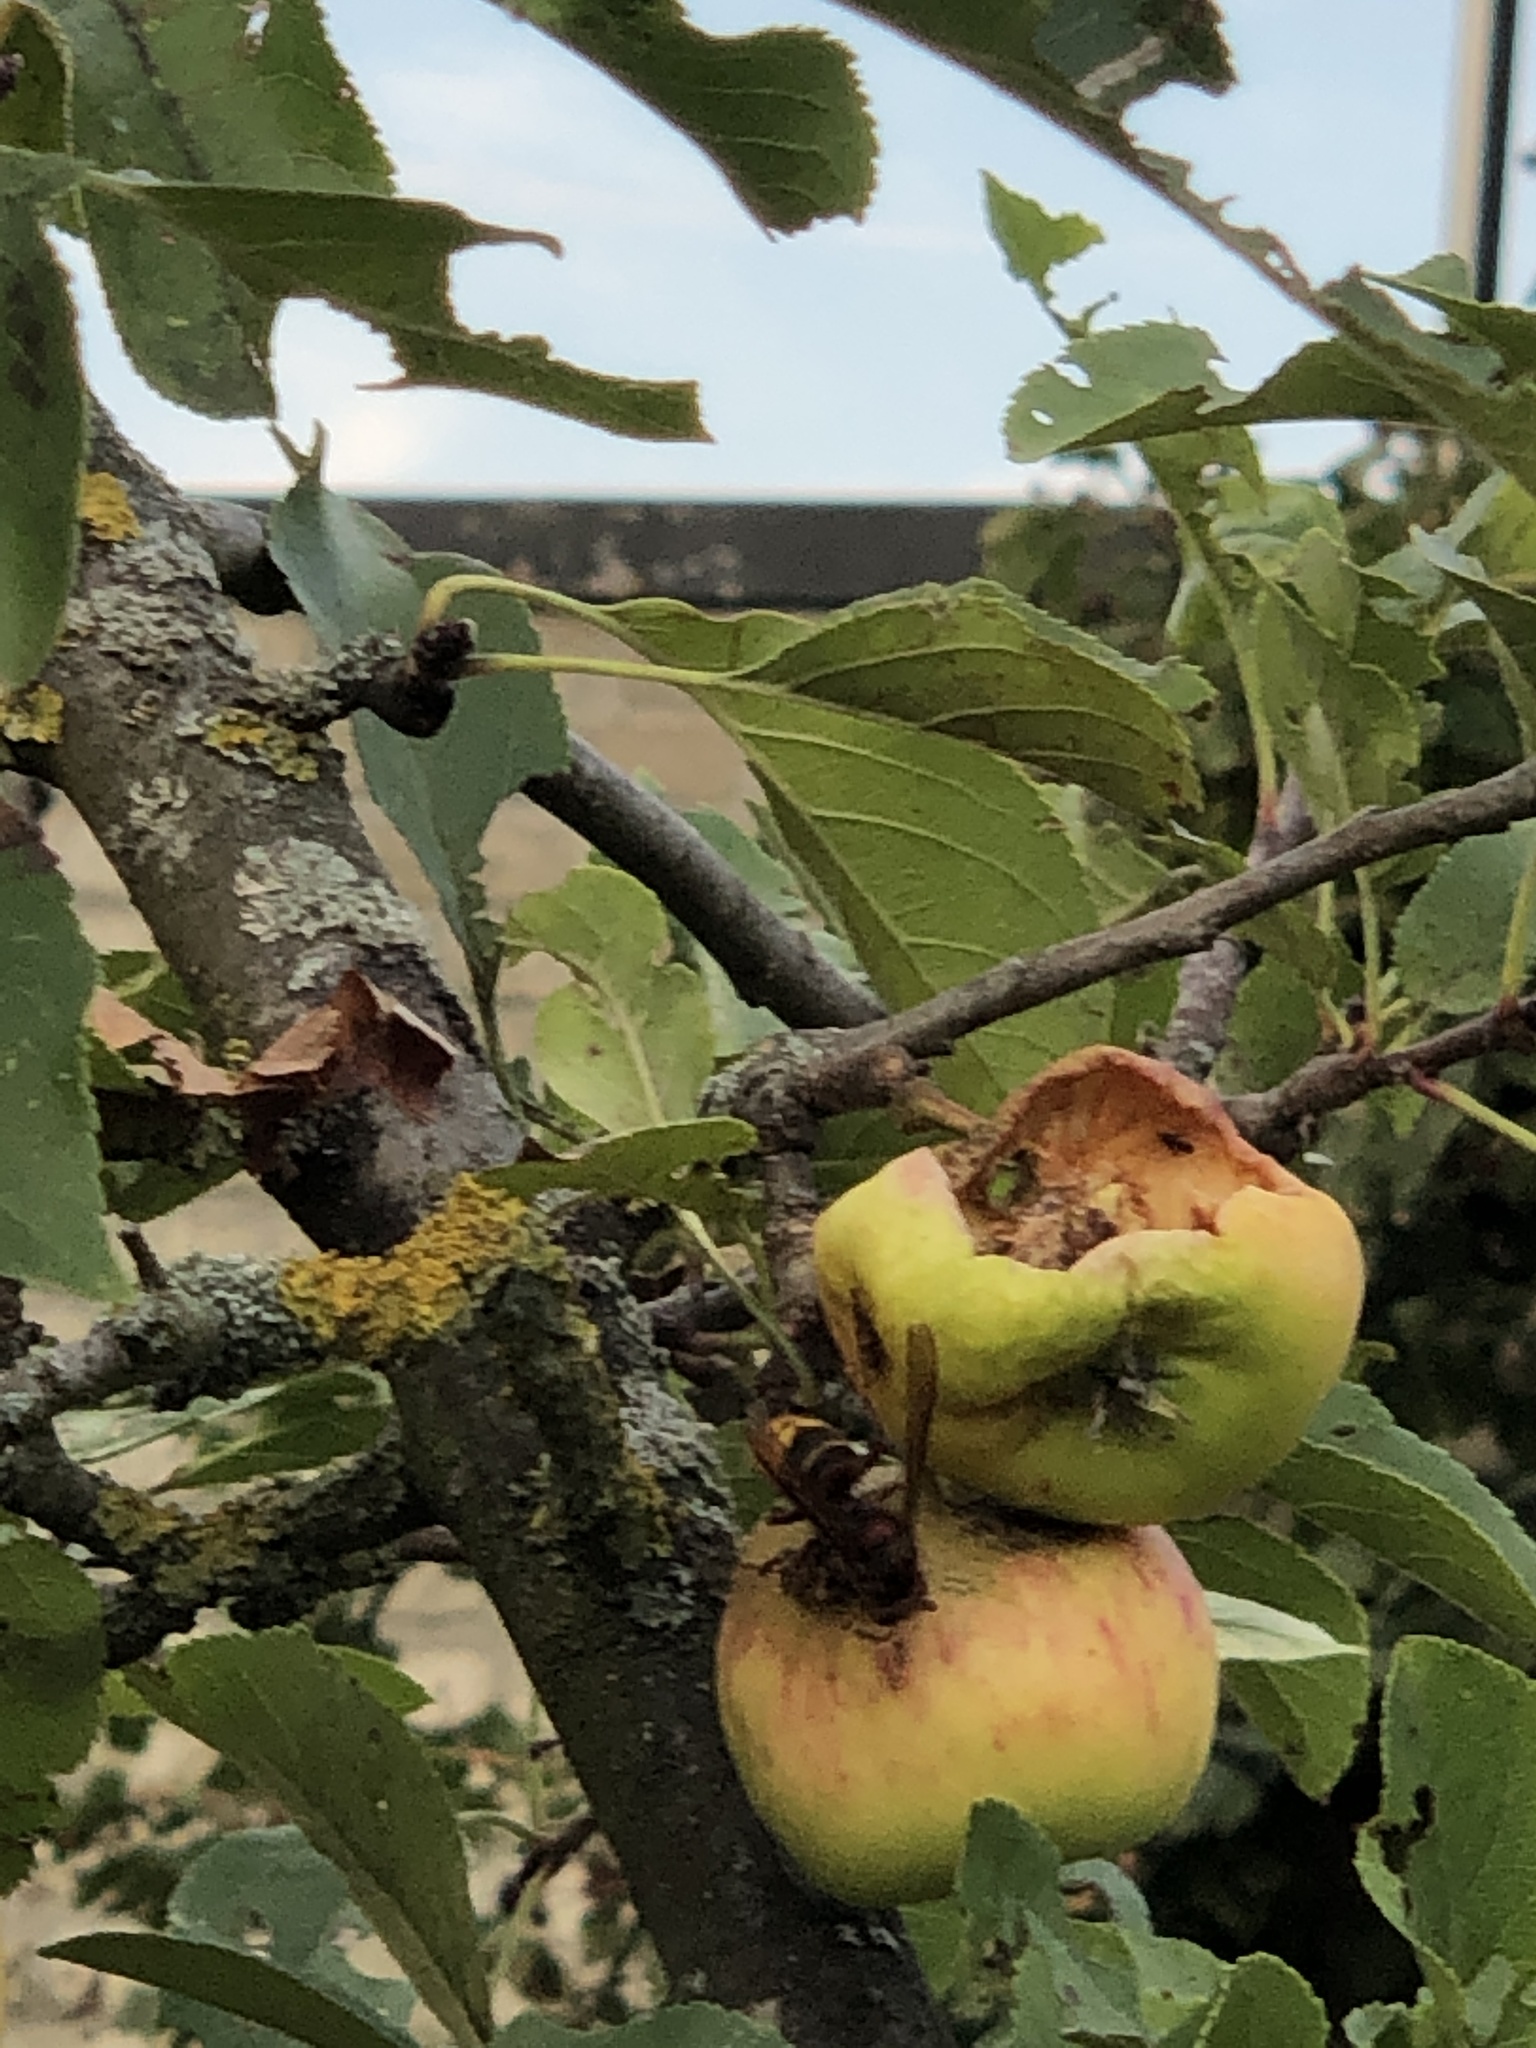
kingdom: Animalia
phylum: Arthropoda
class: Insecta
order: Hymenoptera
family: Vespidae
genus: Vespa
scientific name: Vespa crabro
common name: Hornet
